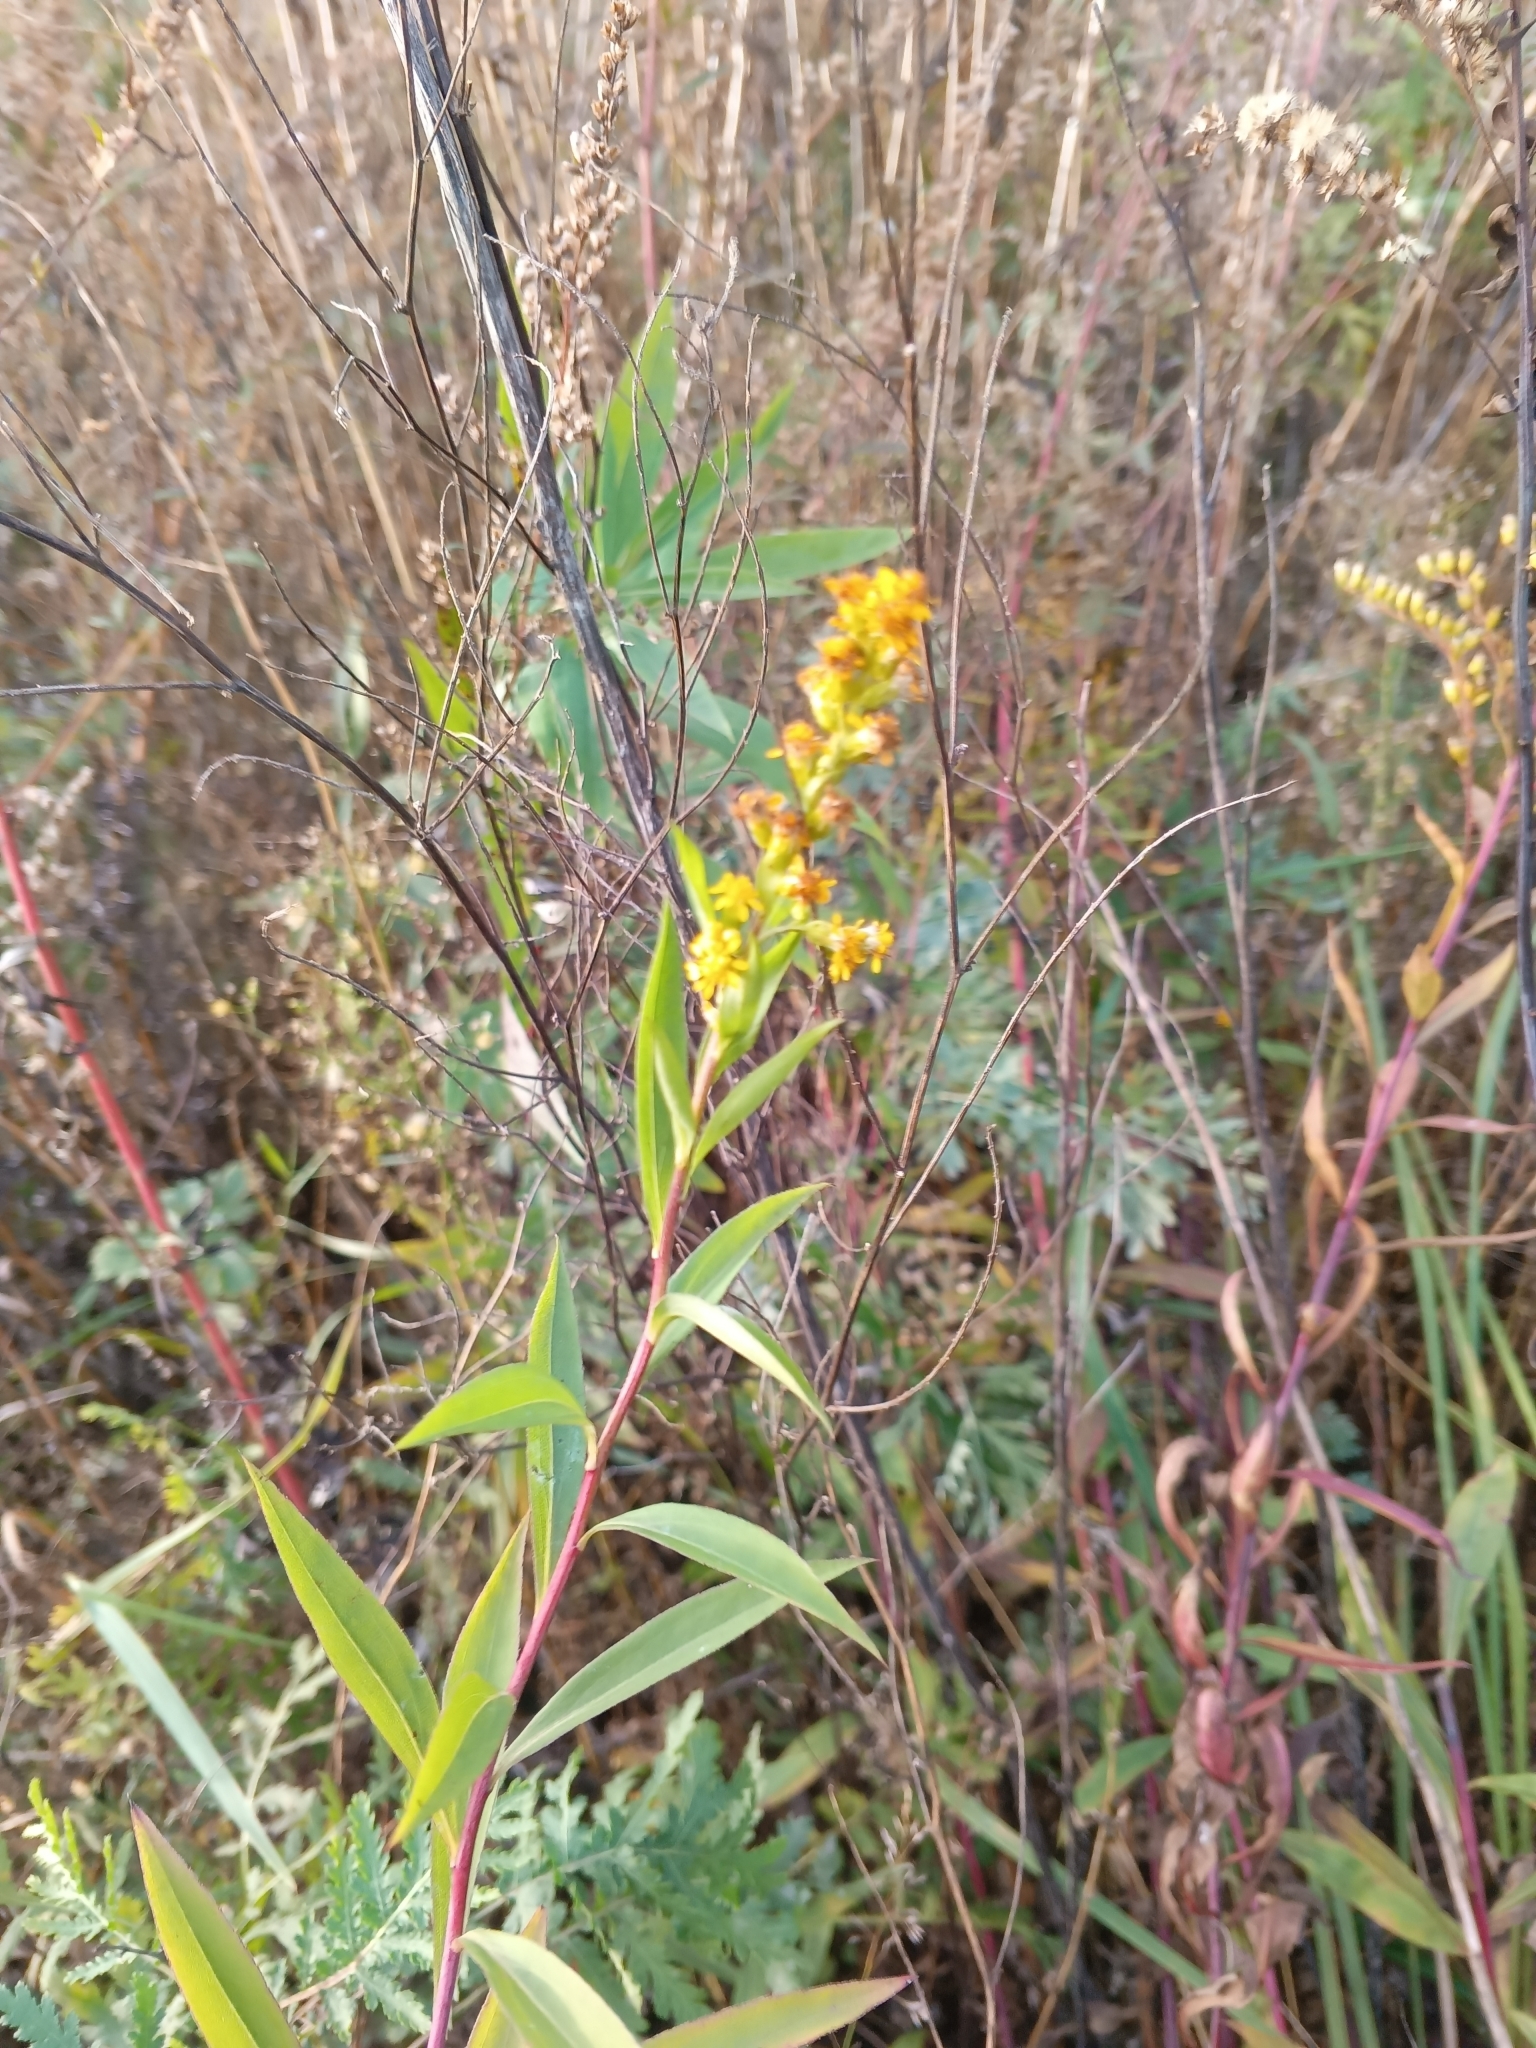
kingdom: Plantae
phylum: Tracheophyta
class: Magnoliopsida
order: Asterales
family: Asteraceae
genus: Solidago
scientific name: Solidago gigantea
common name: Giant goldenrod
